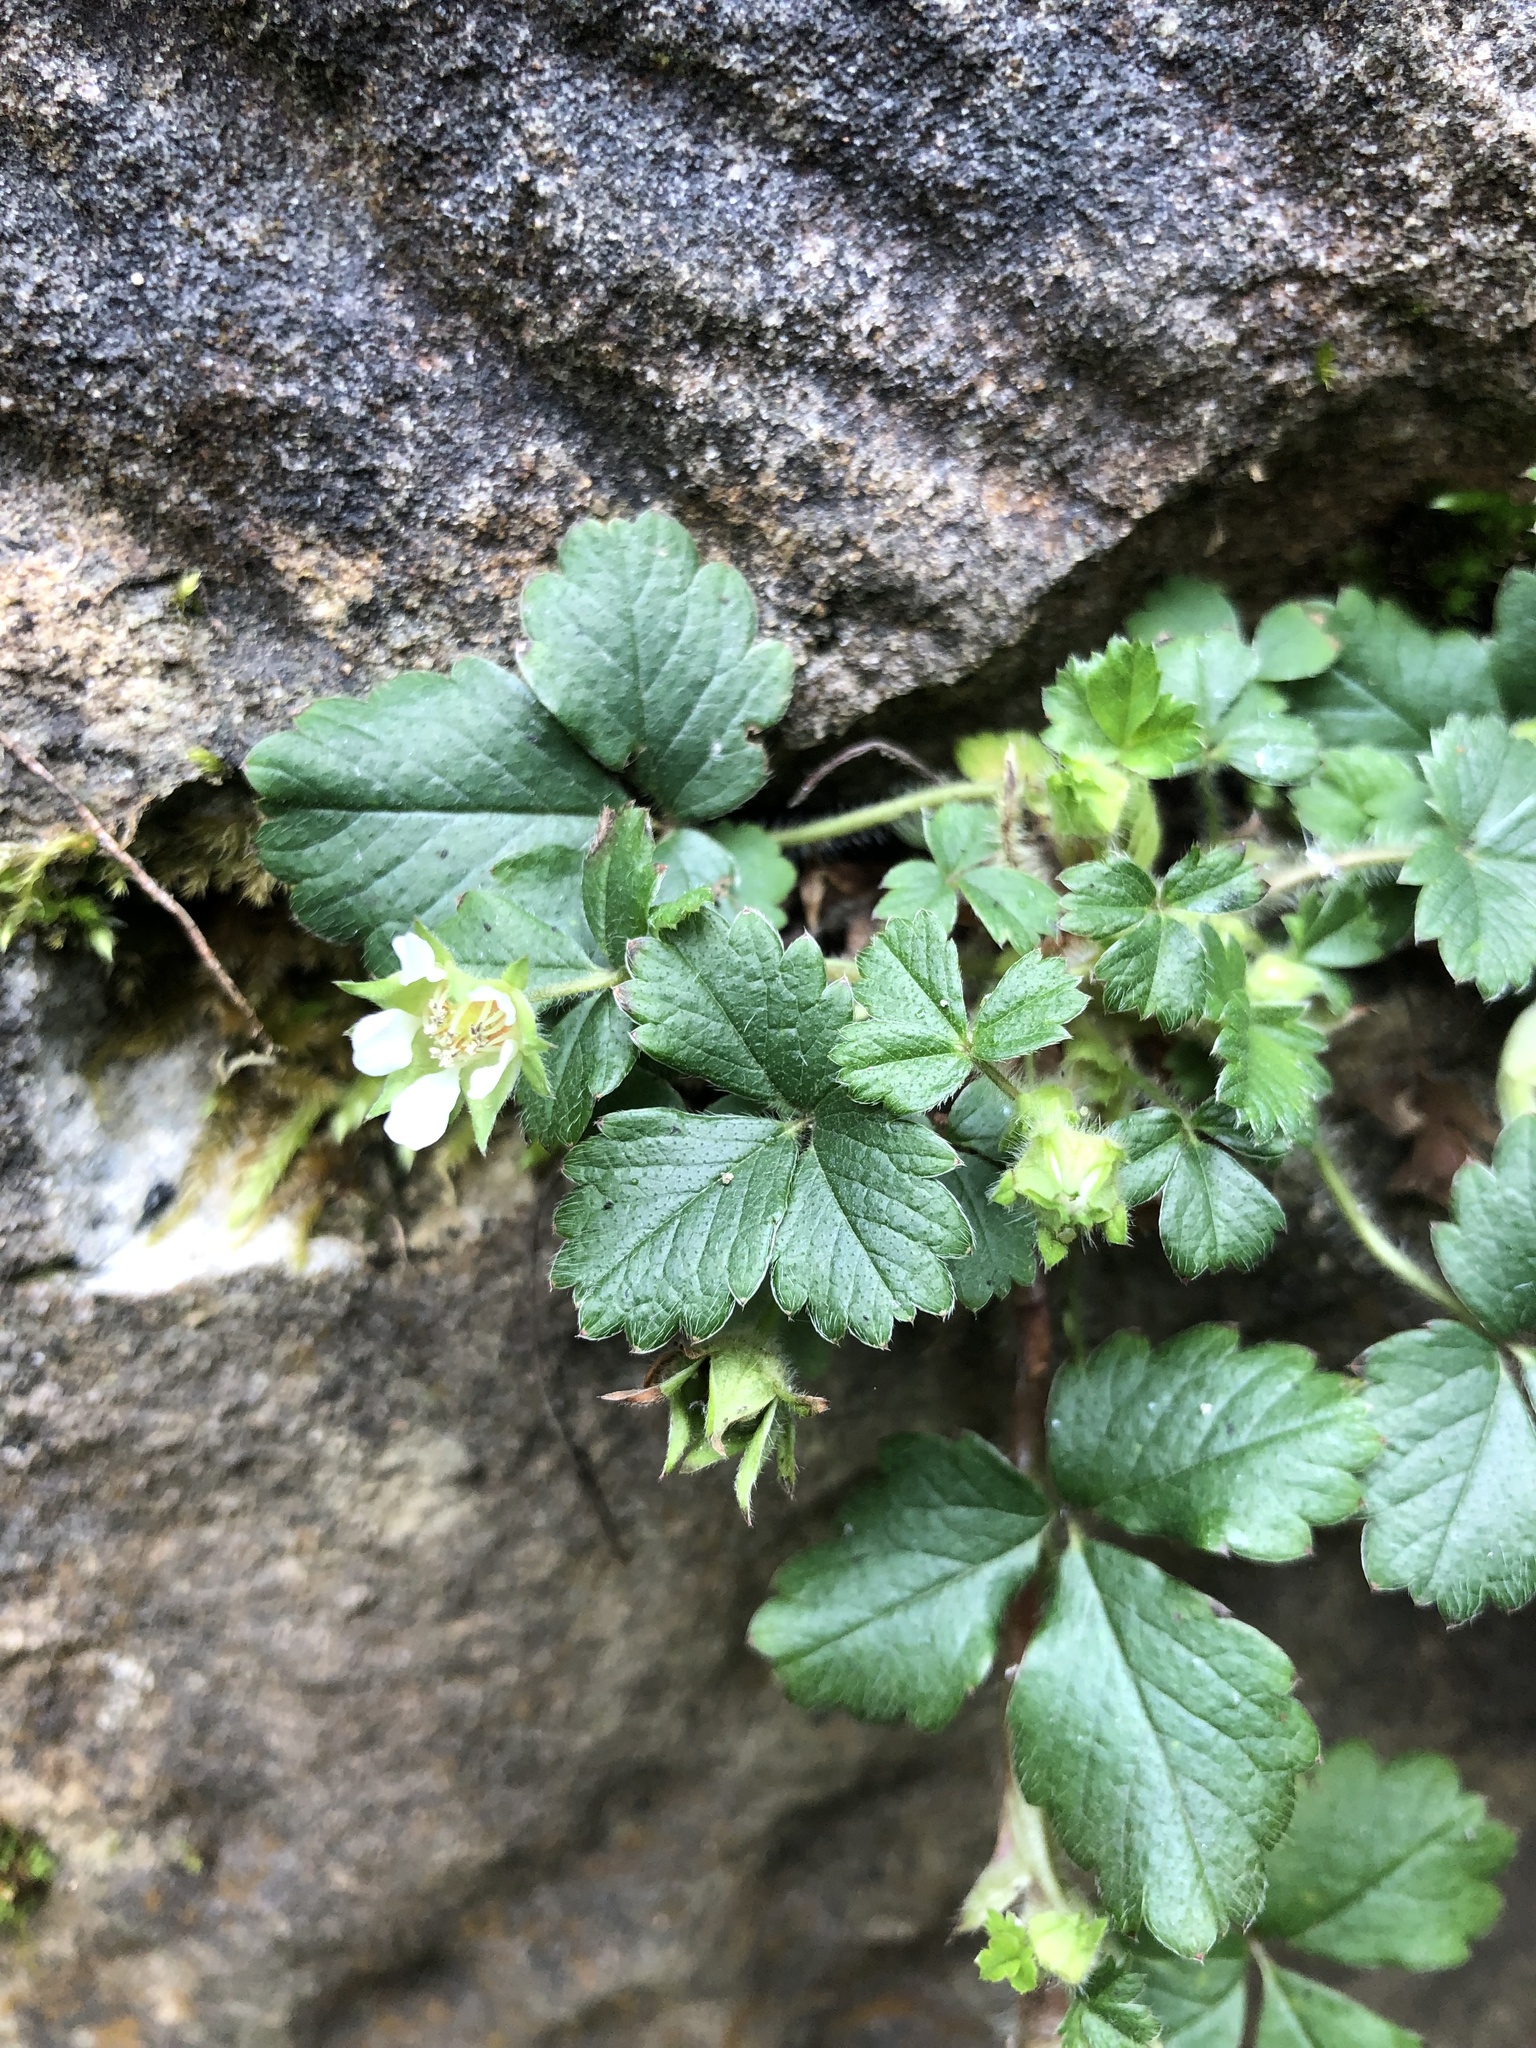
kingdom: Plantae
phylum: Tracheophyta
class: Magnoliopsida
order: Rosales
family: Rosaceae
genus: Potentilla
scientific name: Potentilla sterilis
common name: Barren strawberry
